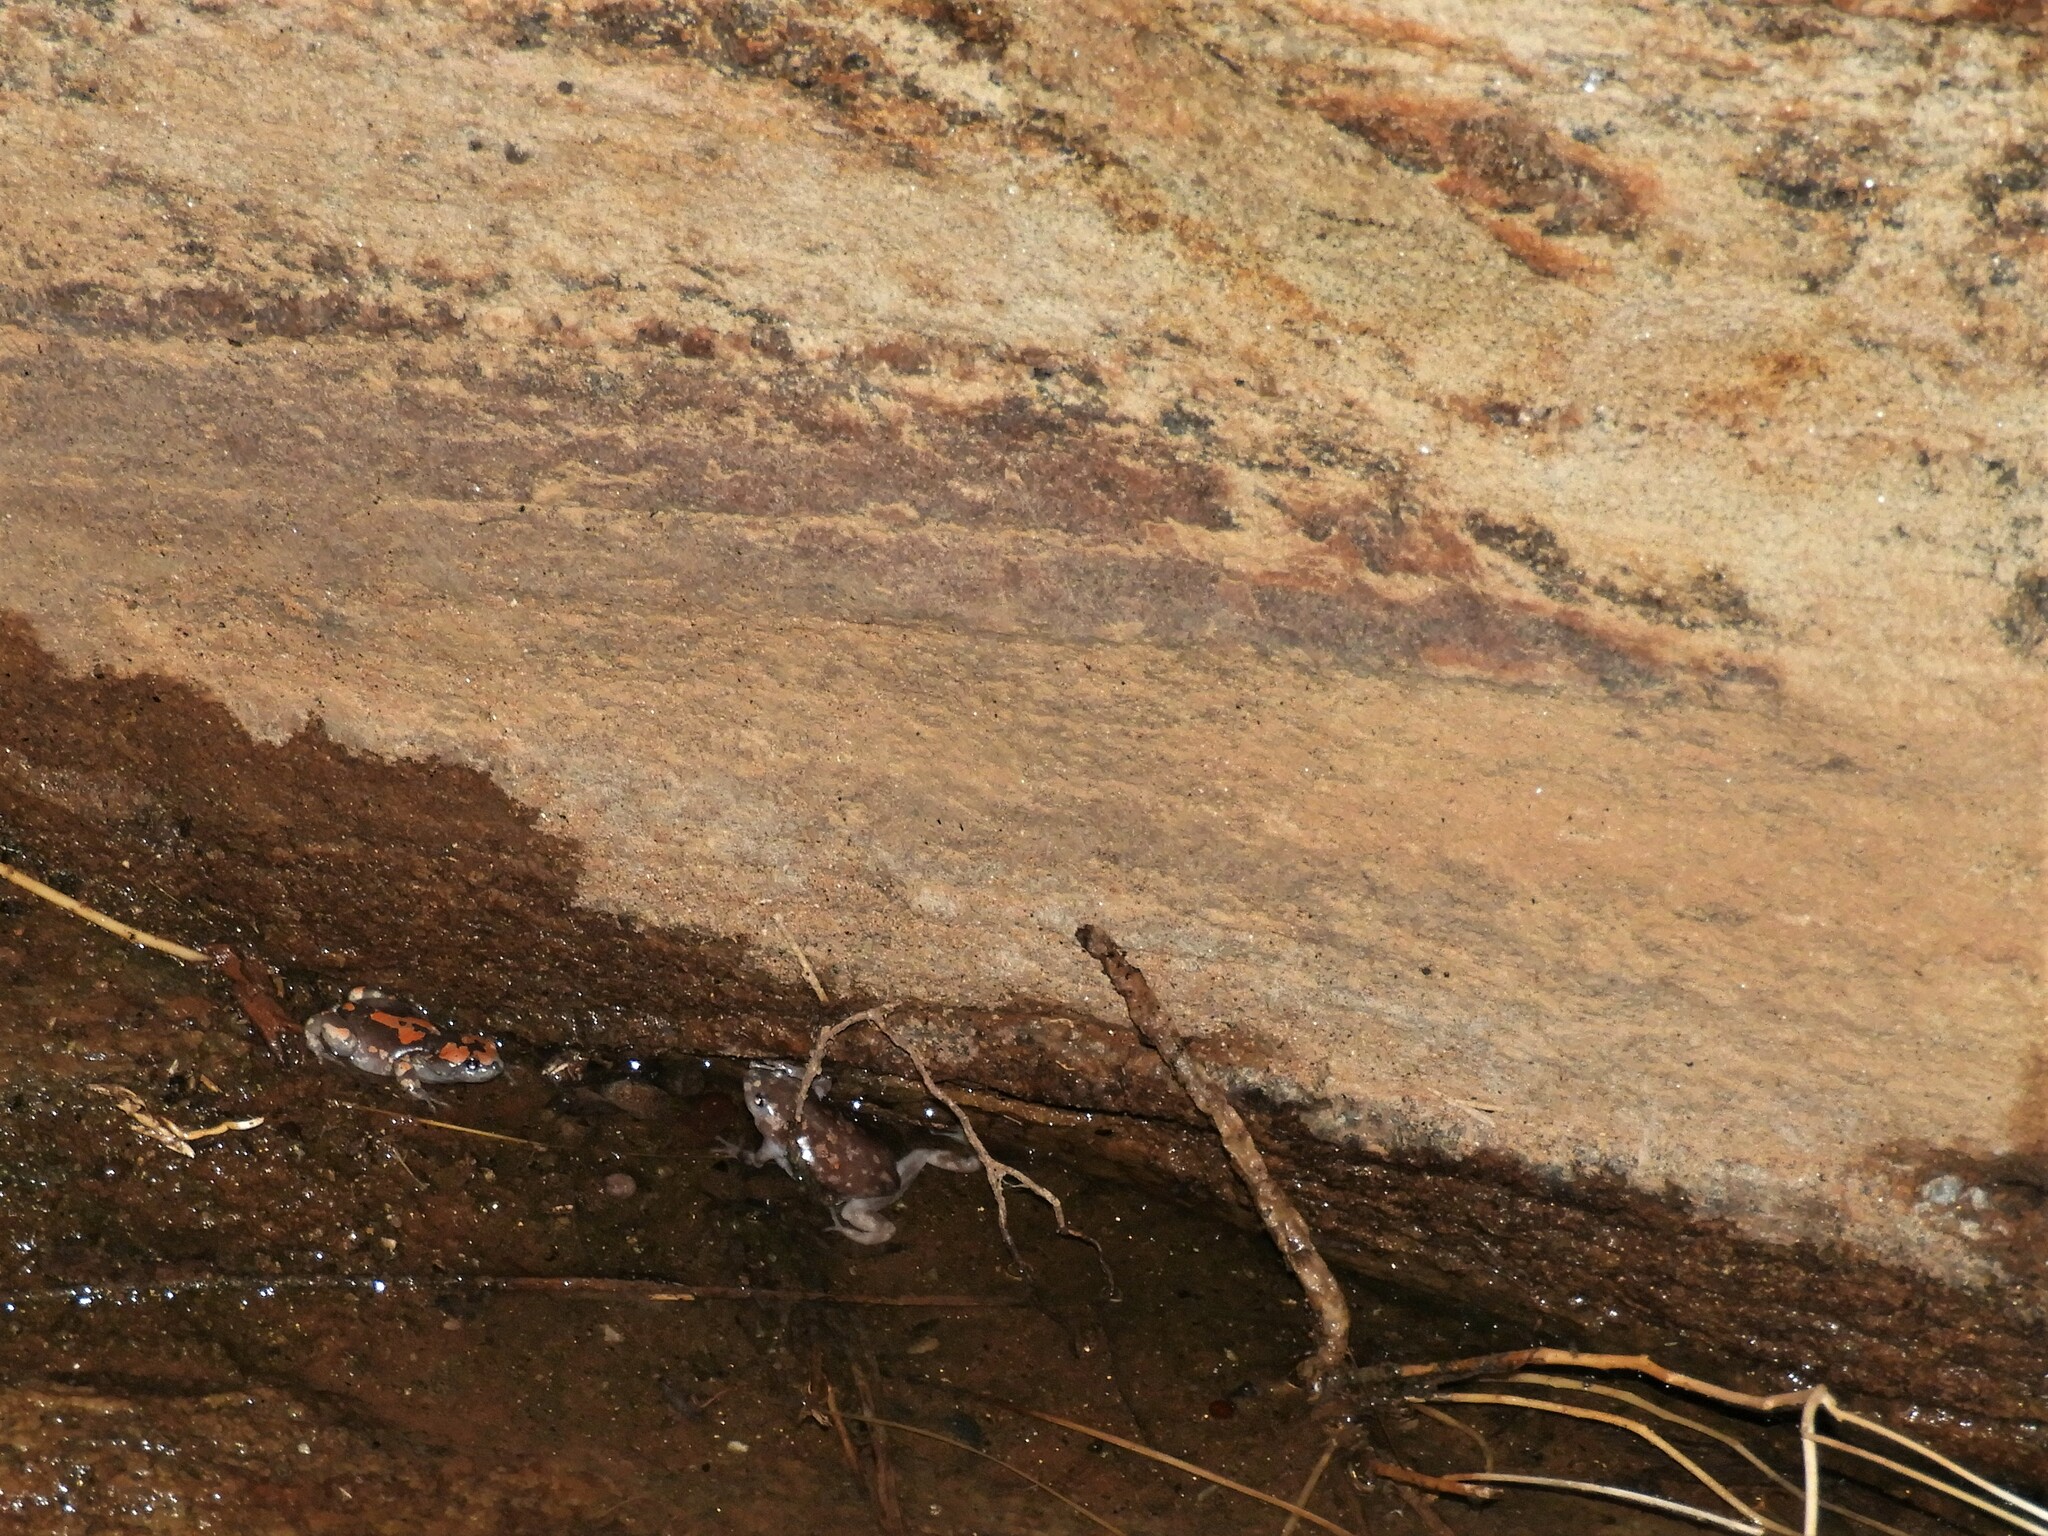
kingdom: Animalia
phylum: Chordata
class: Amphibia
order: Anura
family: Microhylidae
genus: Phrynomantis
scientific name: Phrynomantis annectens
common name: Marbled rubber frog
